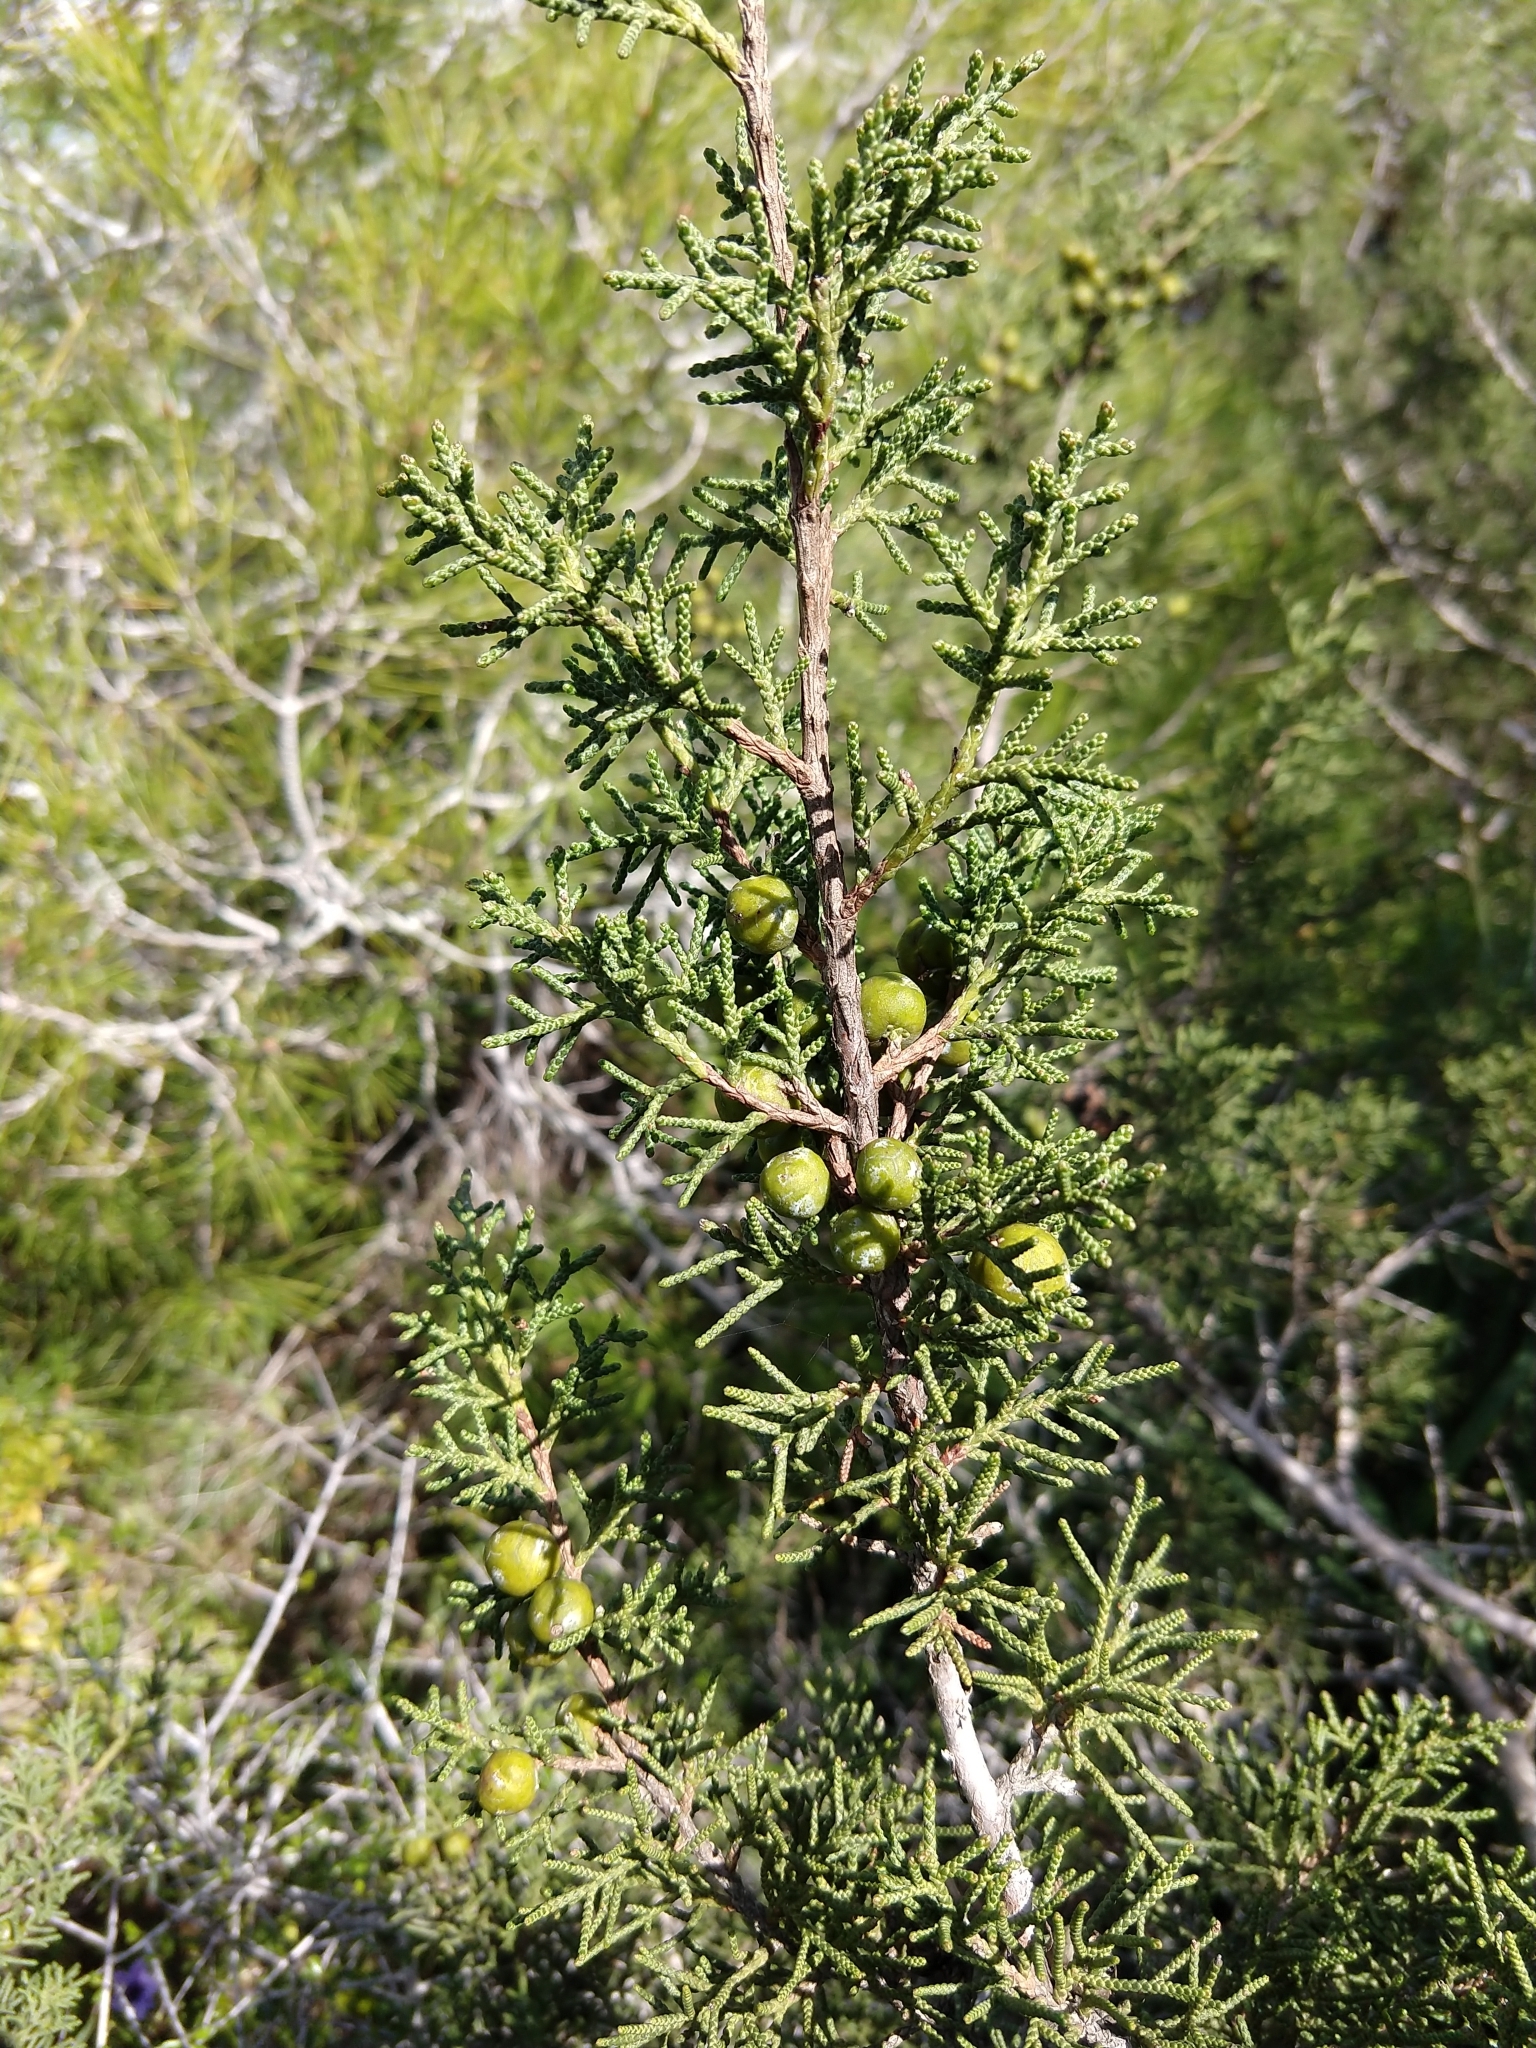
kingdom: Plantae
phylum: Tracheophyta
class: Pinopsida
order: Pinales
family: Cupressaceae
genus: Juniperus
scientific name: Juniperus phoenicea
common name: Phoenician juniper
